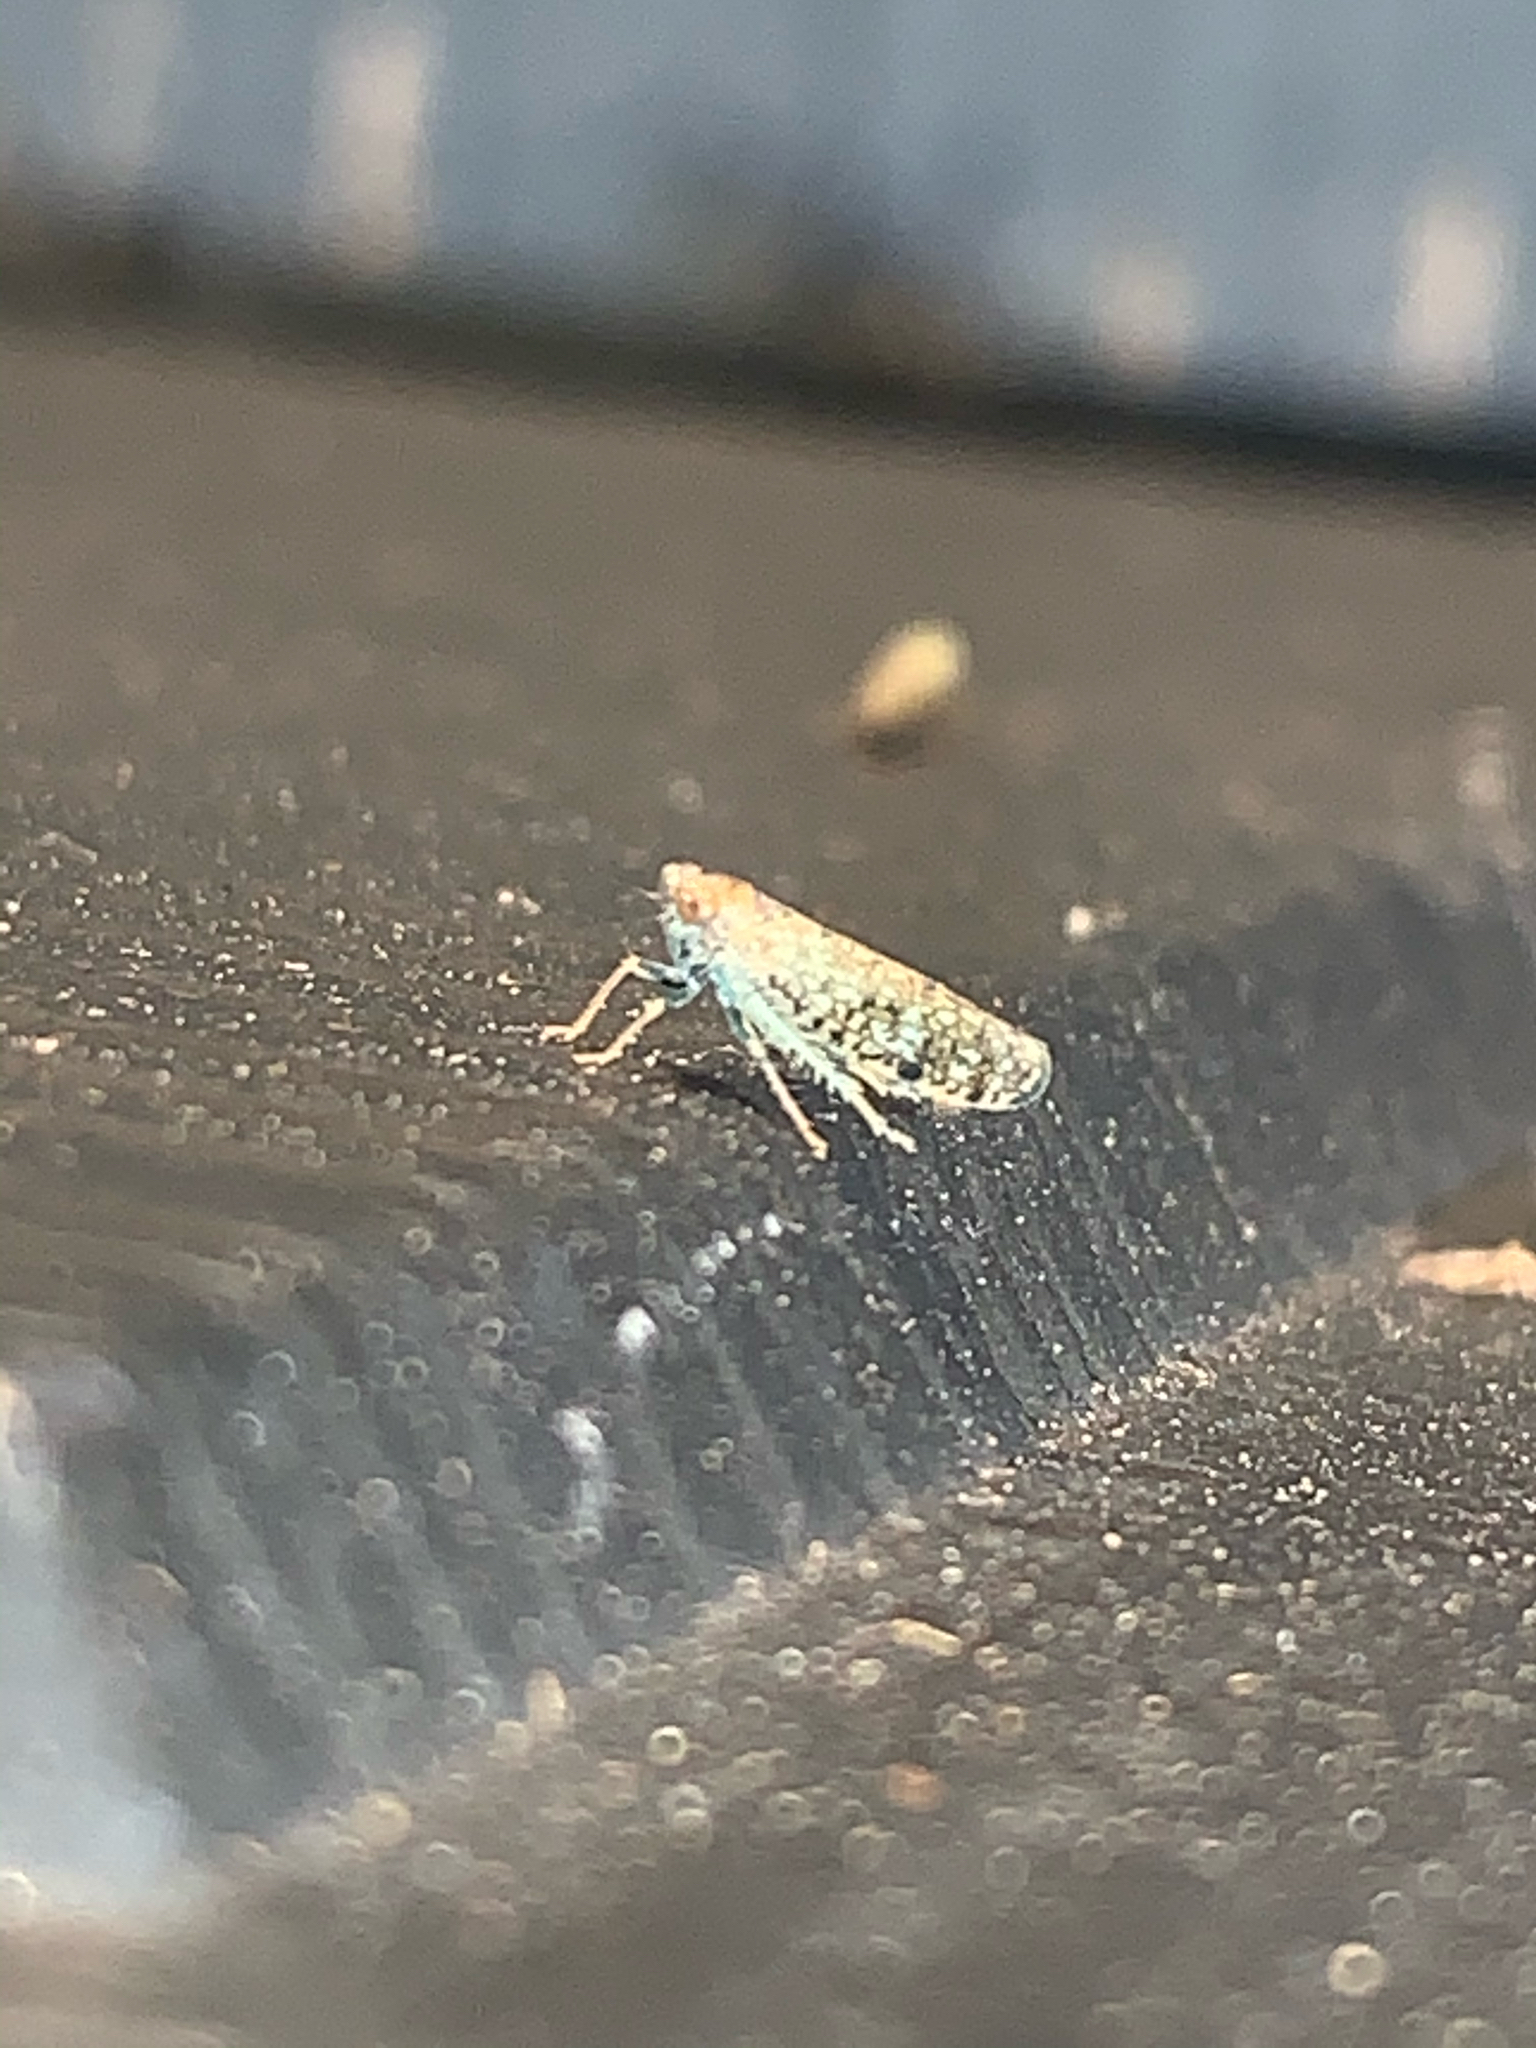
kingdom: Animalia
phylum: Arthropoda
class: Insecta
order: Hemiptera
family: Cicadellidae
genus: Orientus
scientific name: Orientus ishidae
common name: Japanese leafhopper
